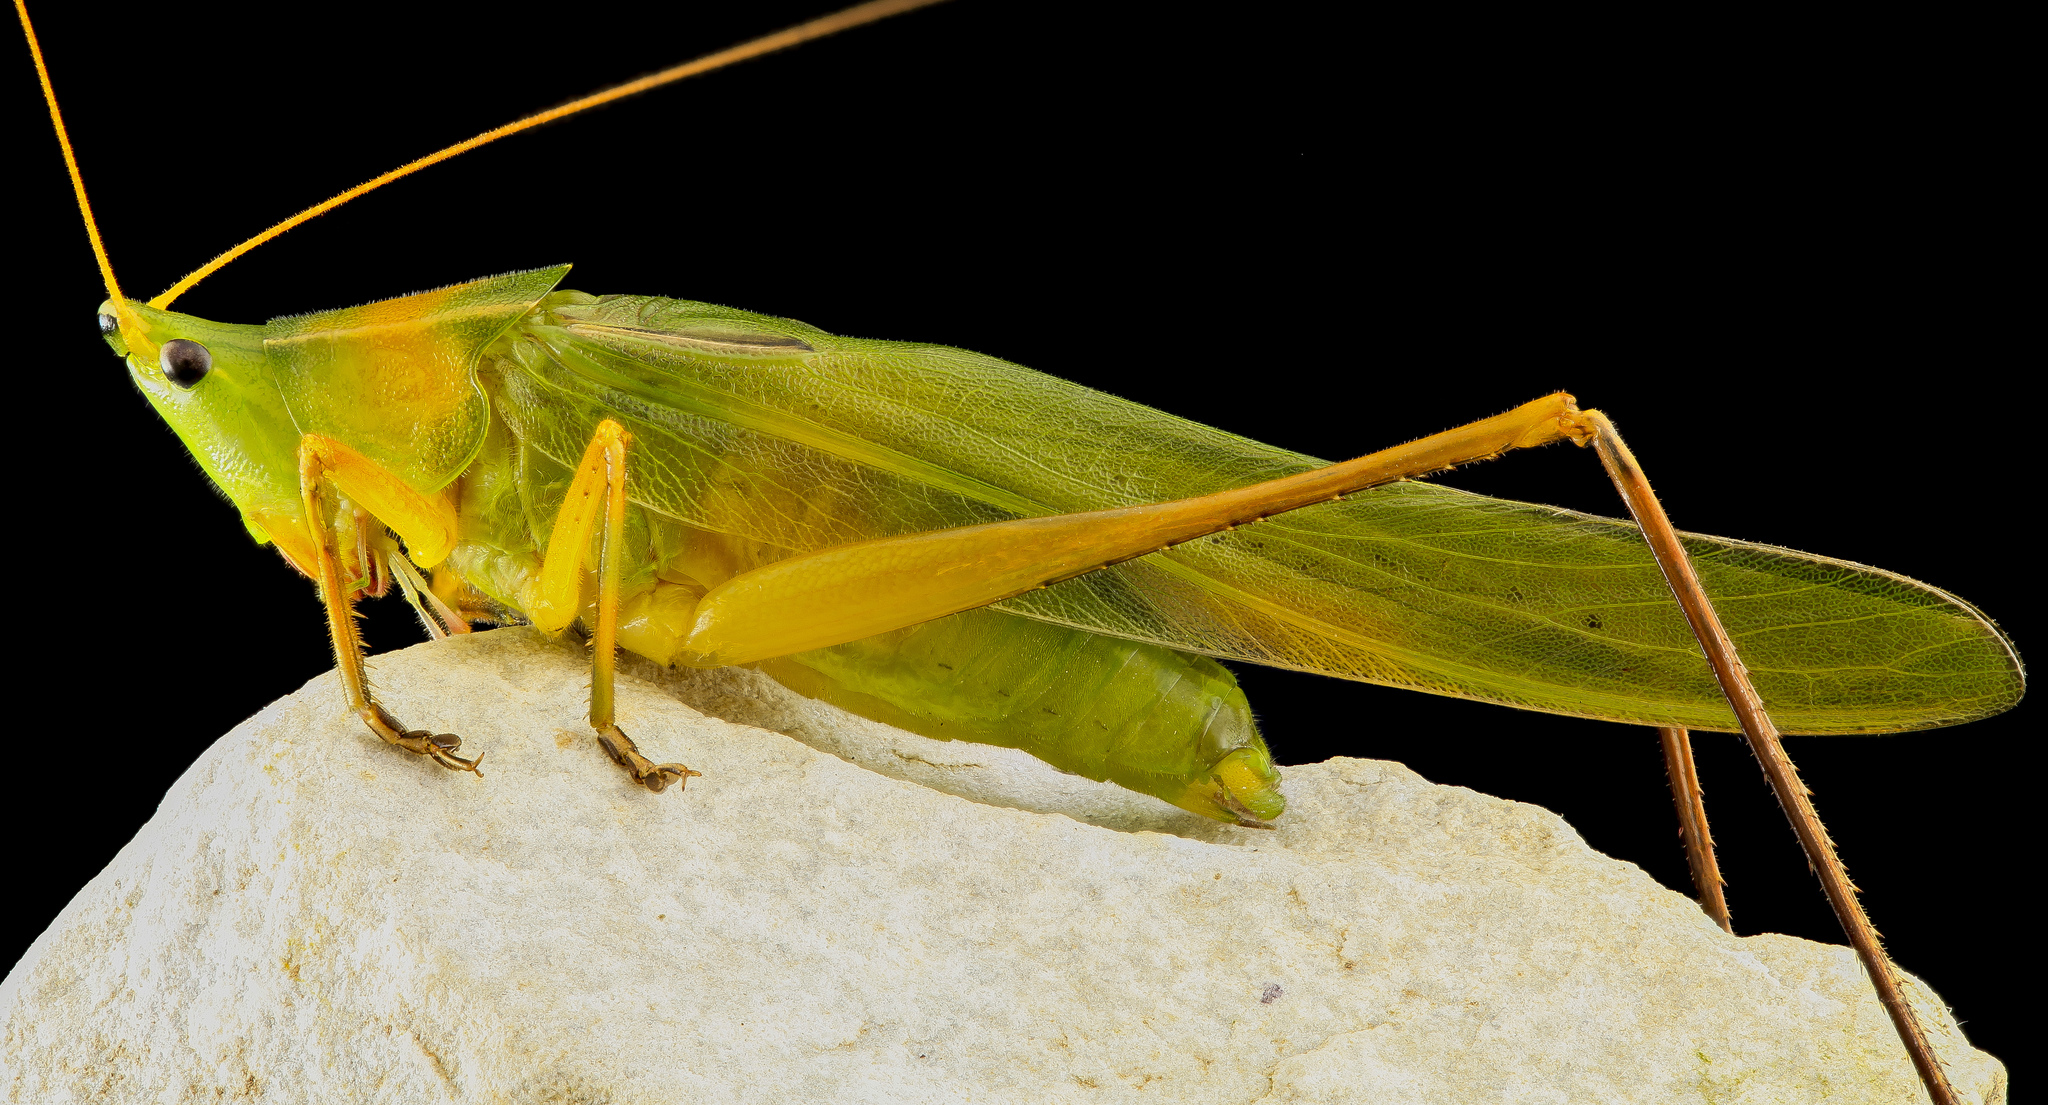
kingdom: Animalia
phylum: Arthropoda
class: Insecta
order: Orthoptera
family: Tettigoniidae
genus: Neoconocephalus
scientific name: Neoconocephalus retusus
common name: Round-tipped conehead
